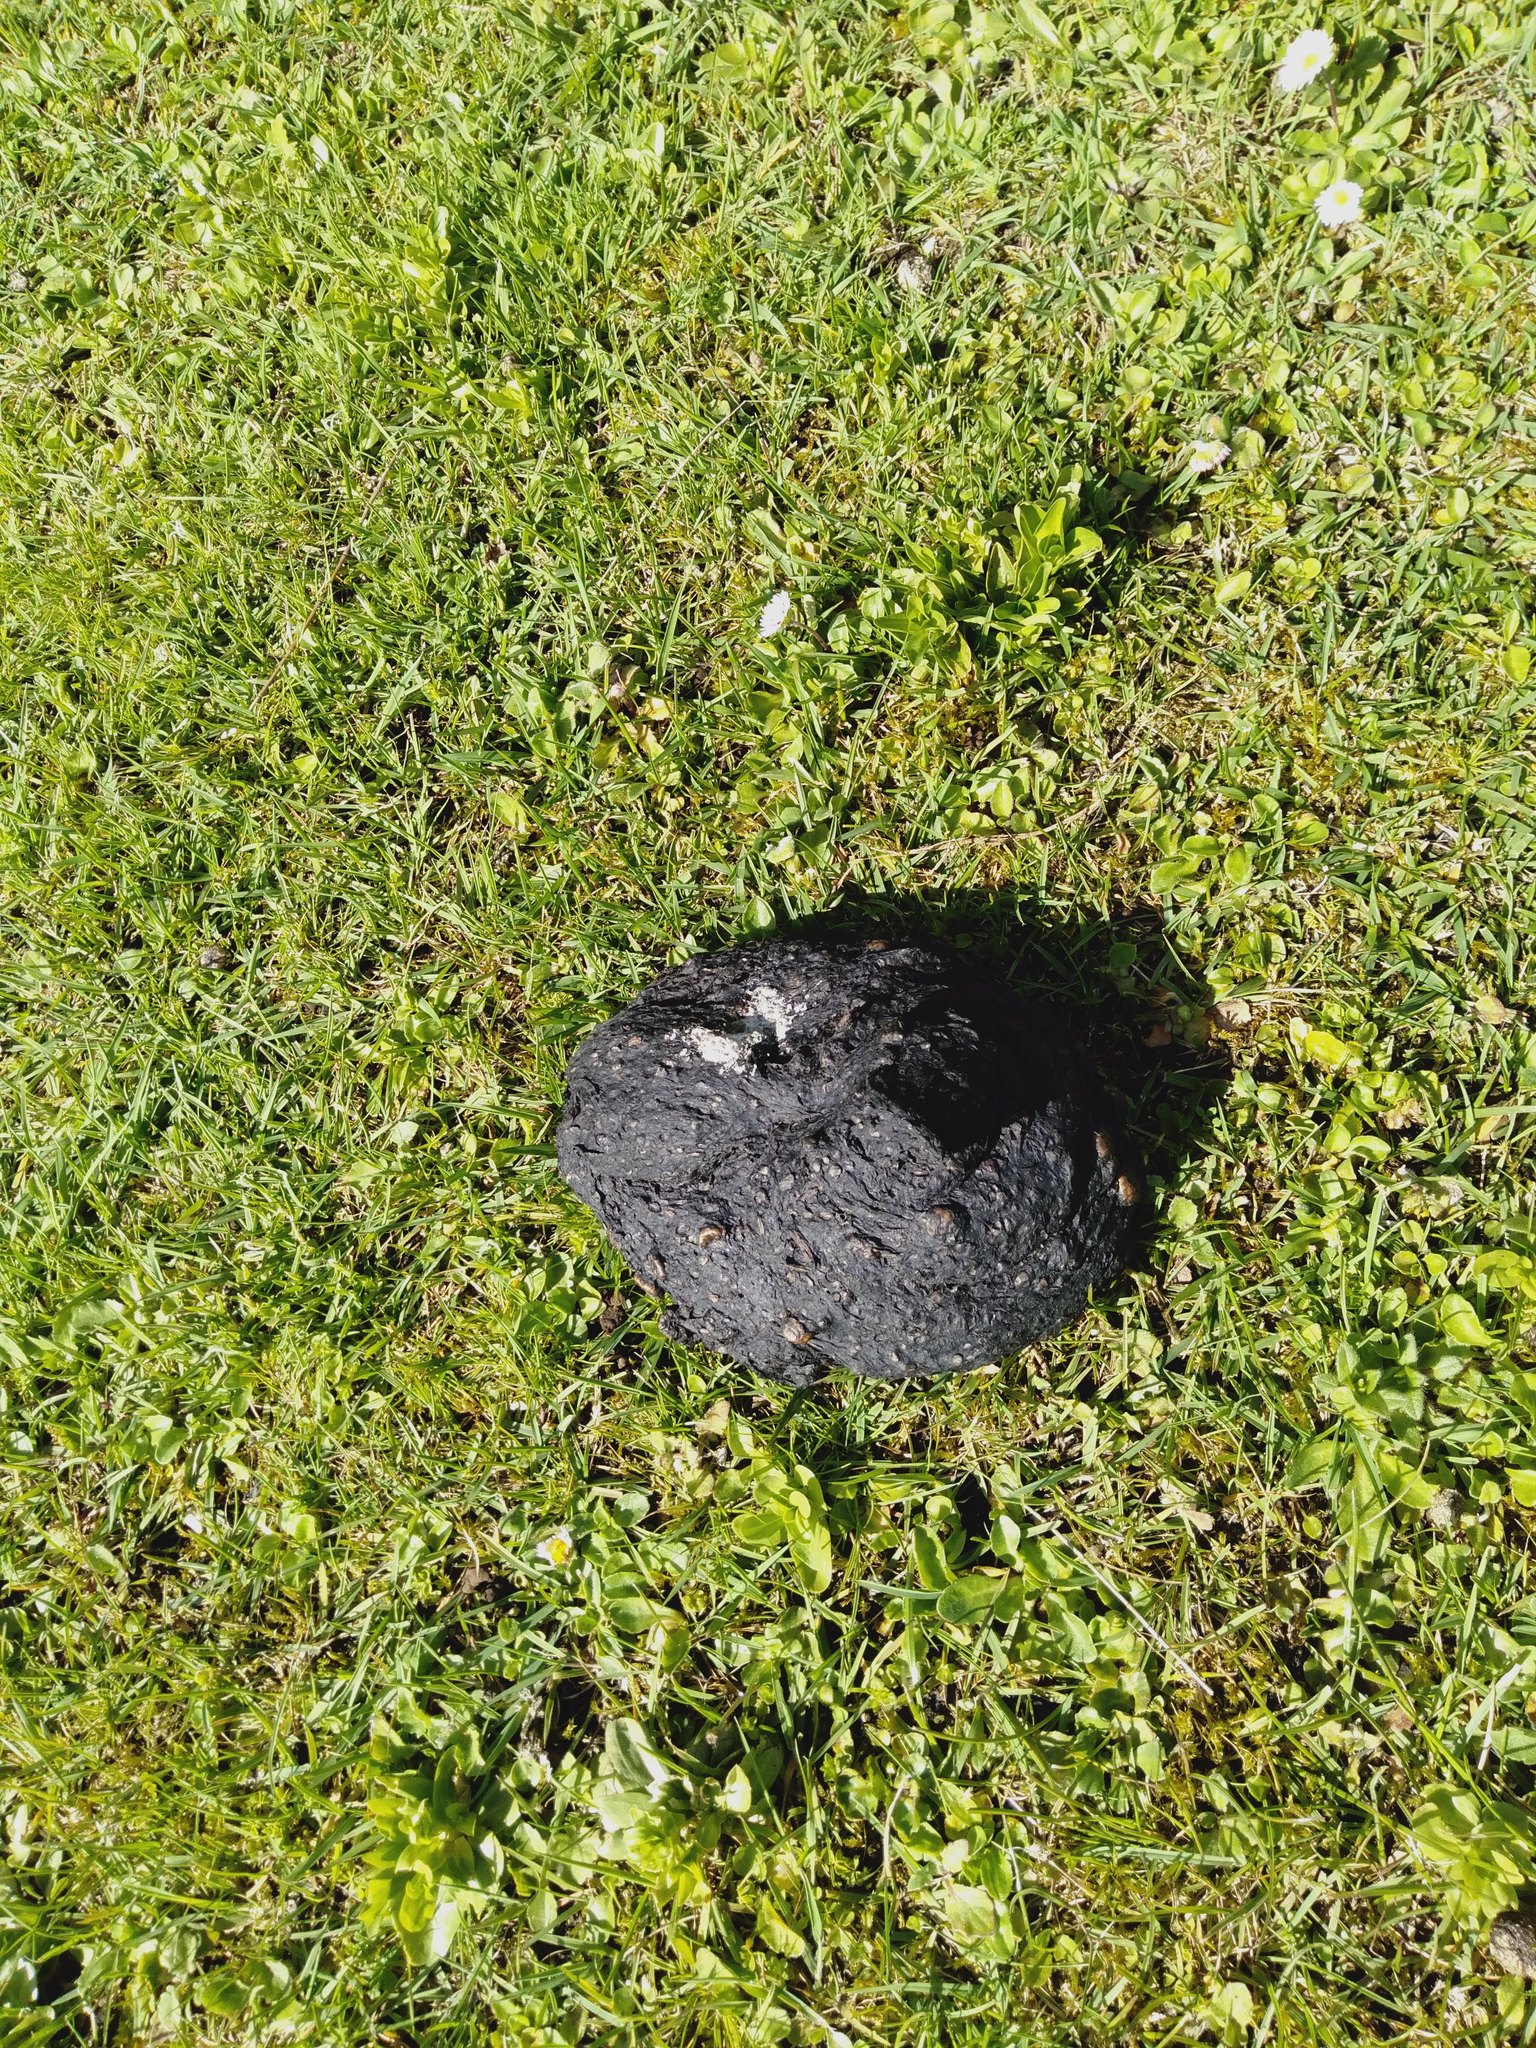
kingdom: Animalia
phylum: Chordata
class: Aves
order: Casuariiformes
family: Dromaiidae
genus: Dromaius
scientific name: Dromaius novaehollandiae
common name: Emu
